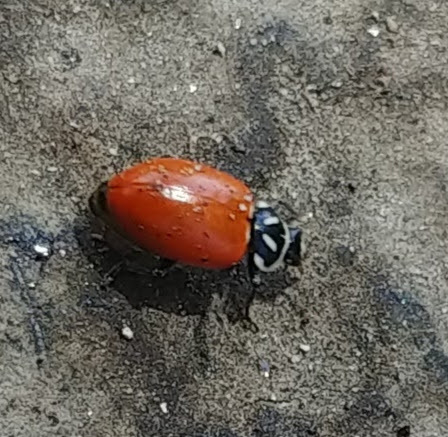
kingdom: Animalia
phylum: Arthropoda
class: Insecta
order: Coleoptera
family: Coccinellidae
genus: Hippodamia
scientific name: Hippodamia convergens
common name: Convergent lady beetle
